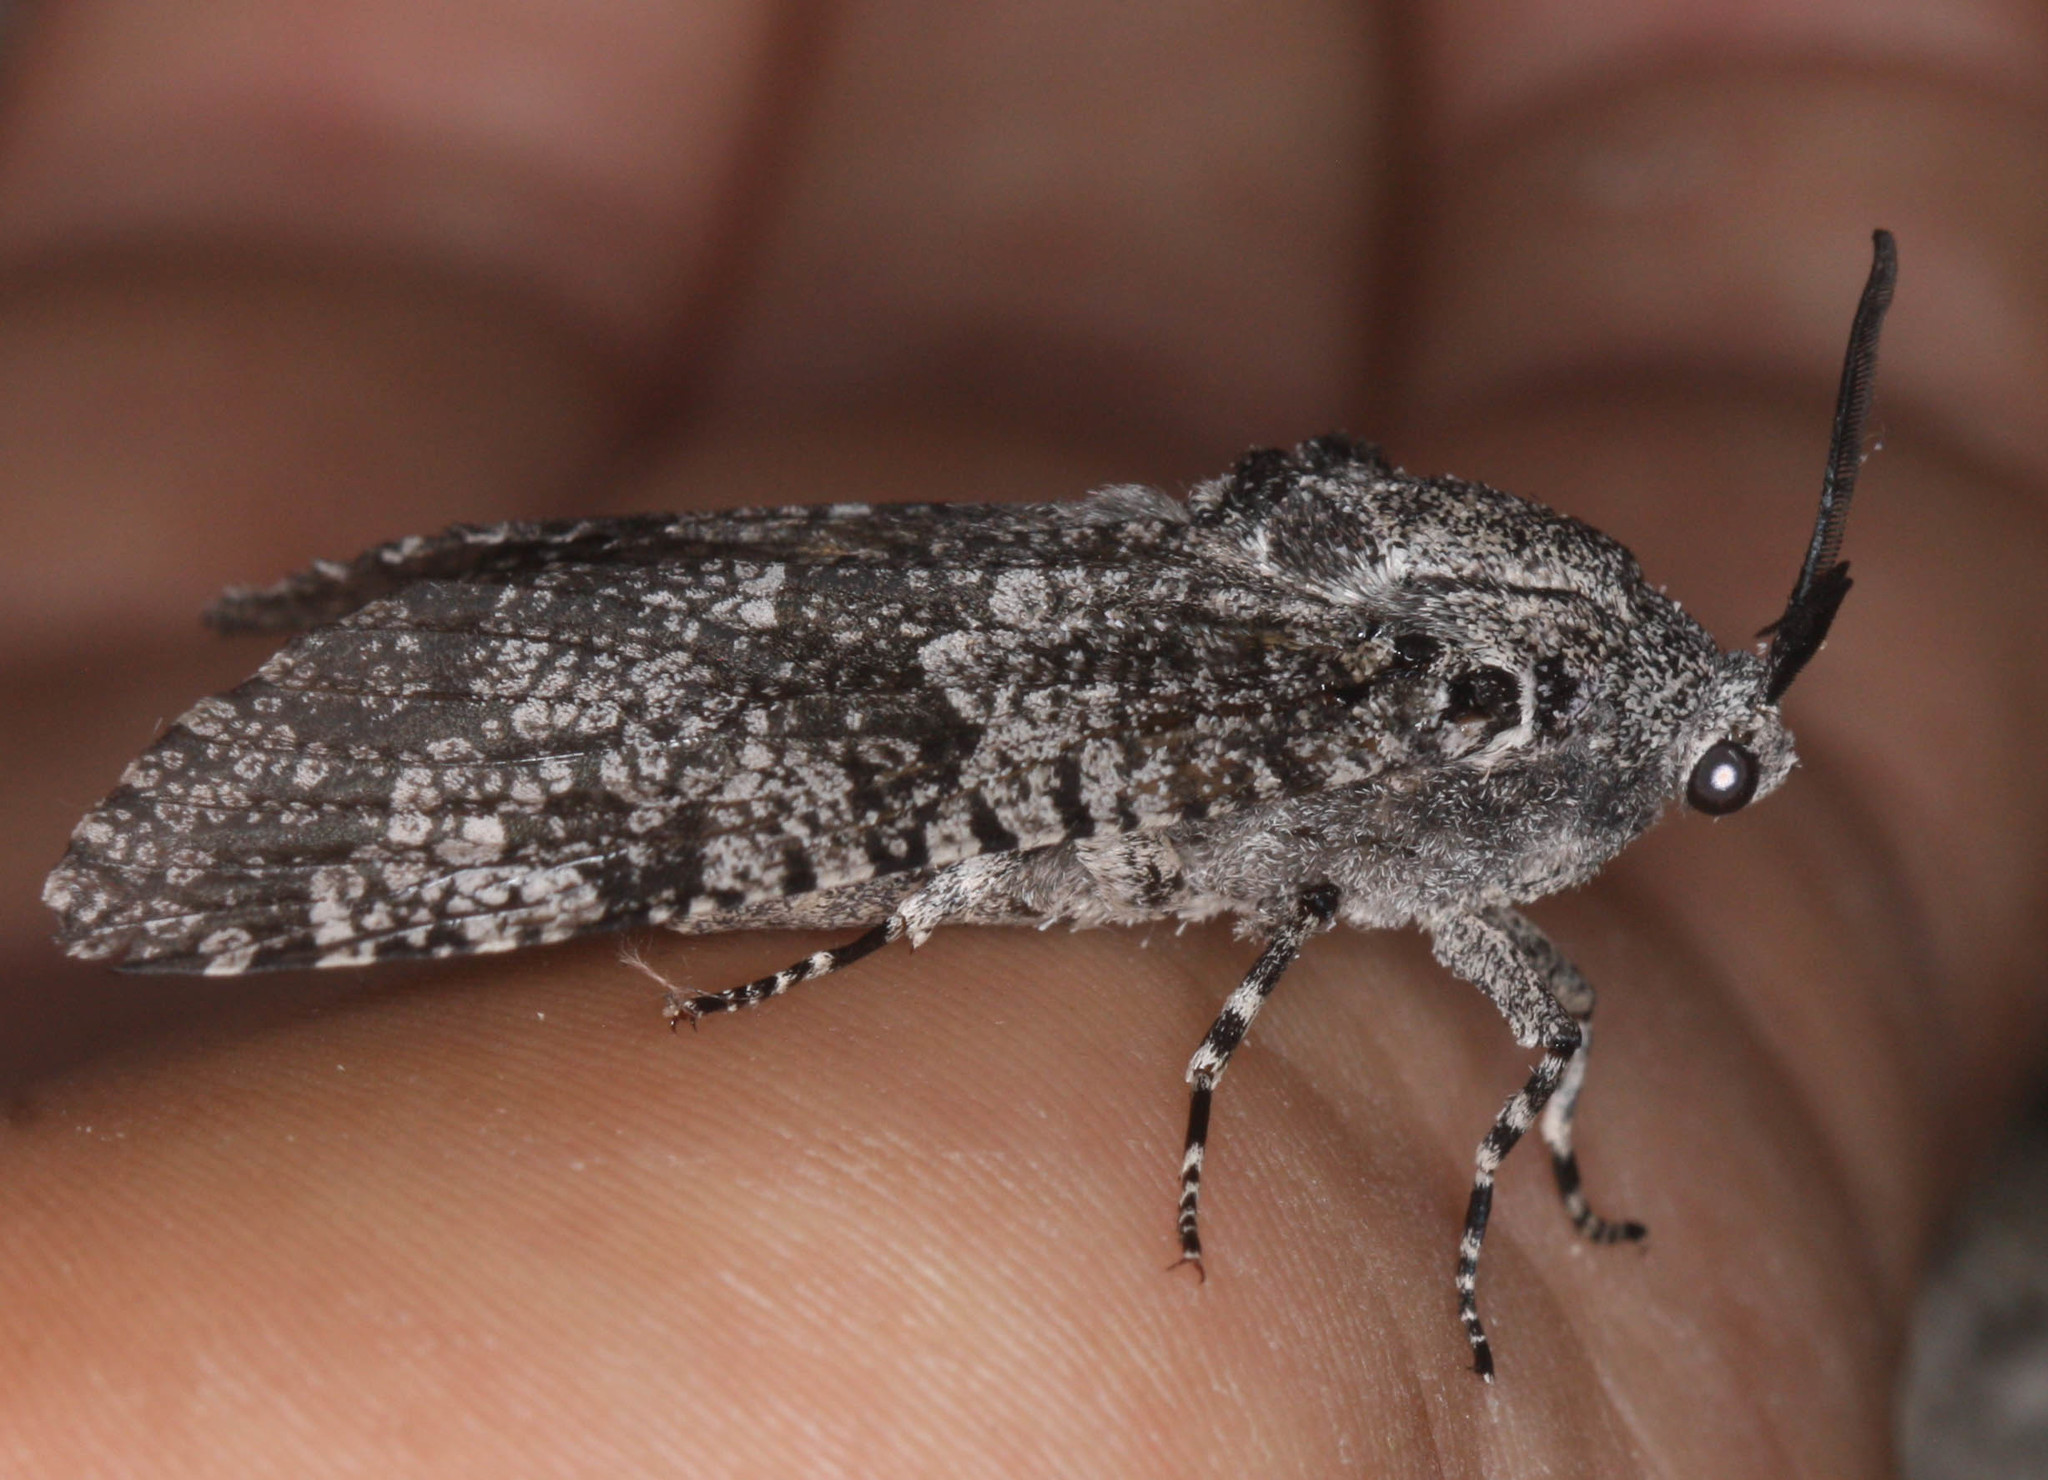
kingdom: Animalia
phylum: Arthropoda
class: Insecta
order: Lepidoptera
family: Cossidae
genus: Prionoxystus
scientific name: Prionoxystus robiniae
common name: Carpenterworm
